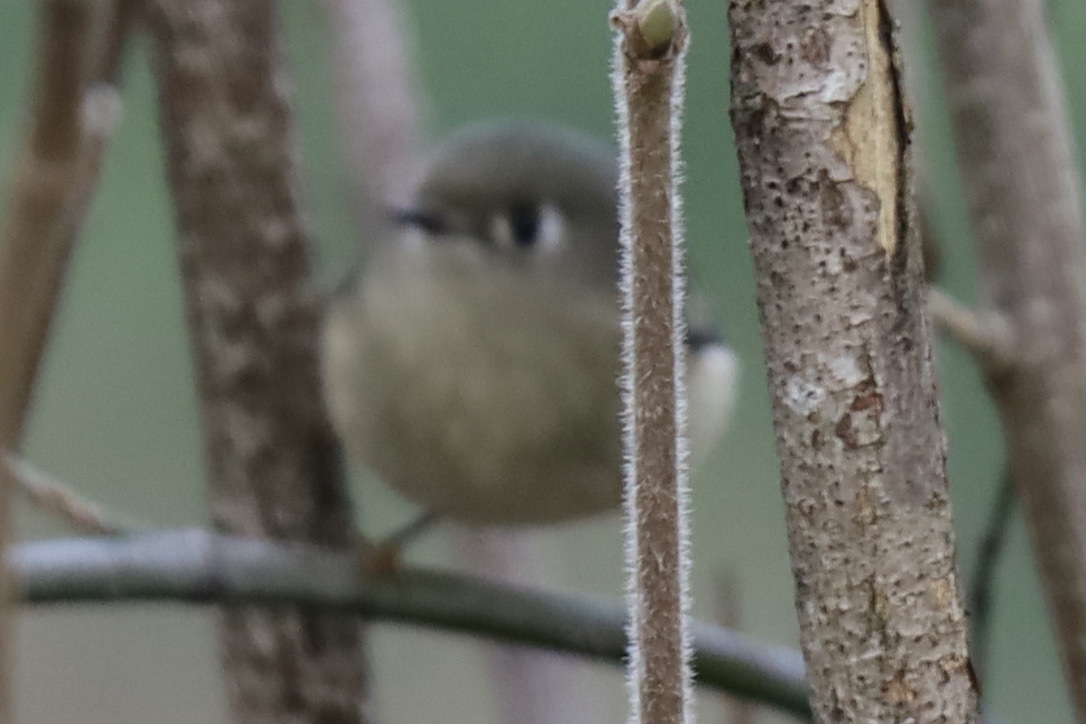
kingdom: Animalia
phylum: Chordata
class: Aves
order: Passeriformes
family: Regulidae
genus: Regulus
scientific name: Regulus calendula
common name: Ruby-crowned kinglet
